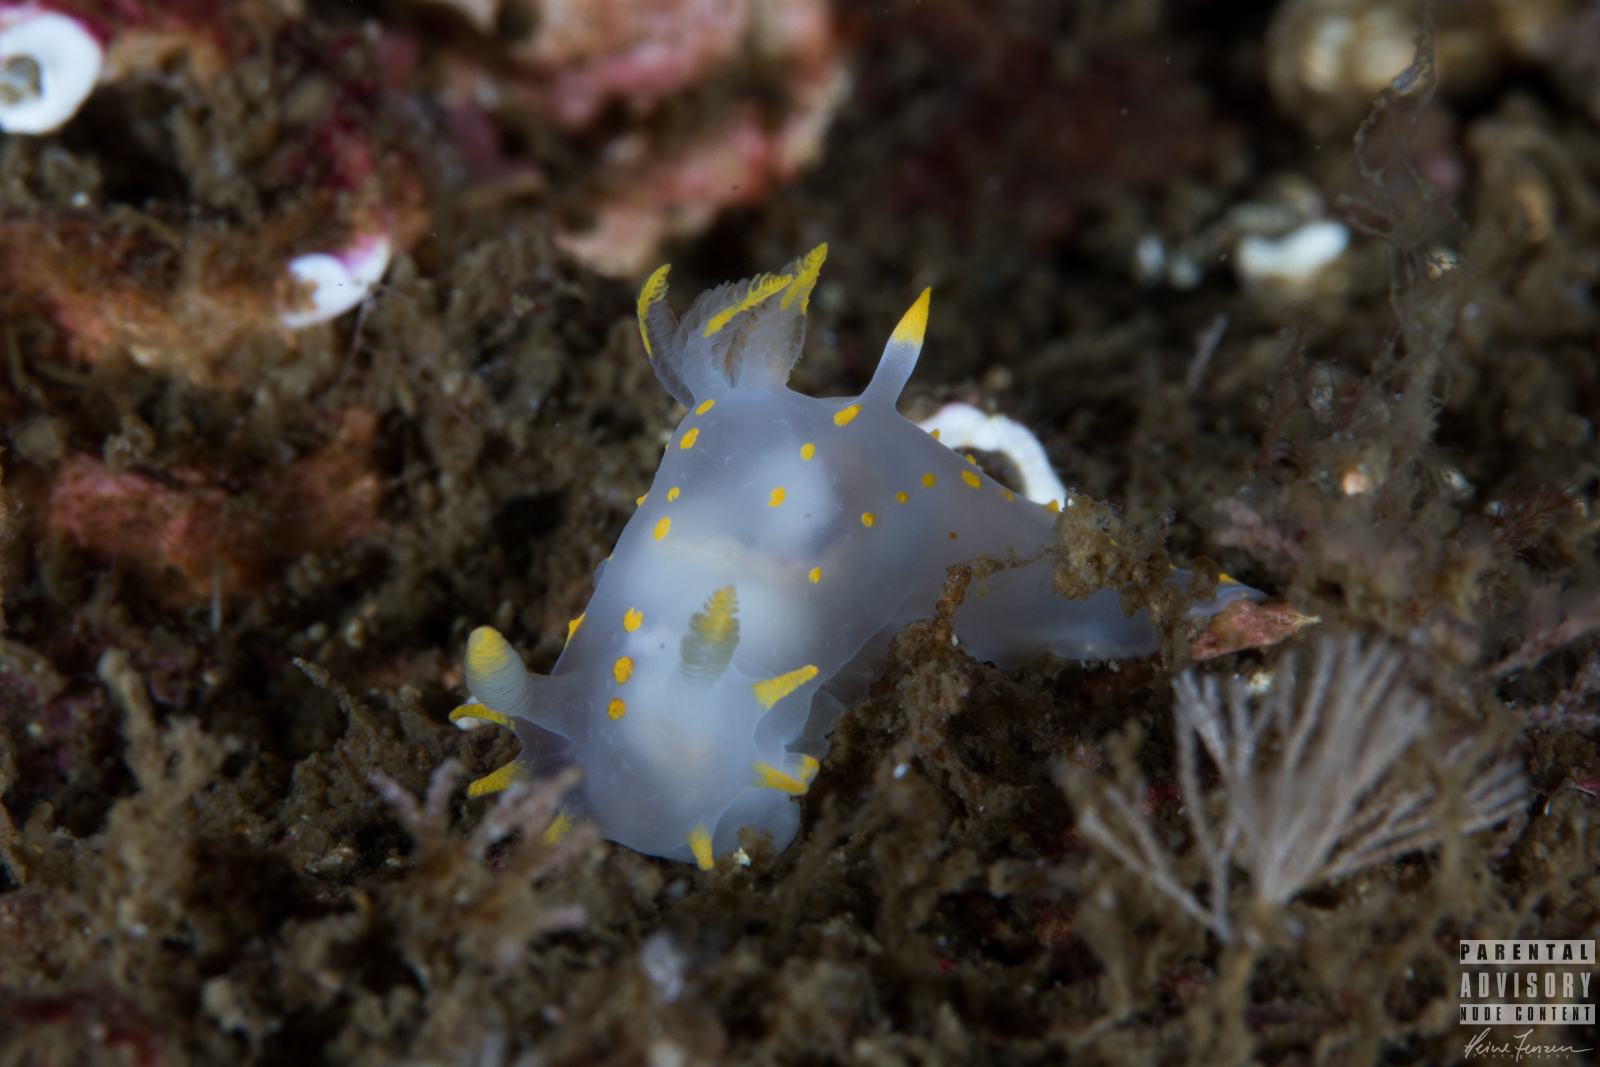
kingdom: Animalia
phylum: Mollusca
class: Gastropoda
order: Nudibranchia
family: Polyceridae
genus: Polycera
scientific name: Polycera quadrilineata
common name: Four-striped polycera
